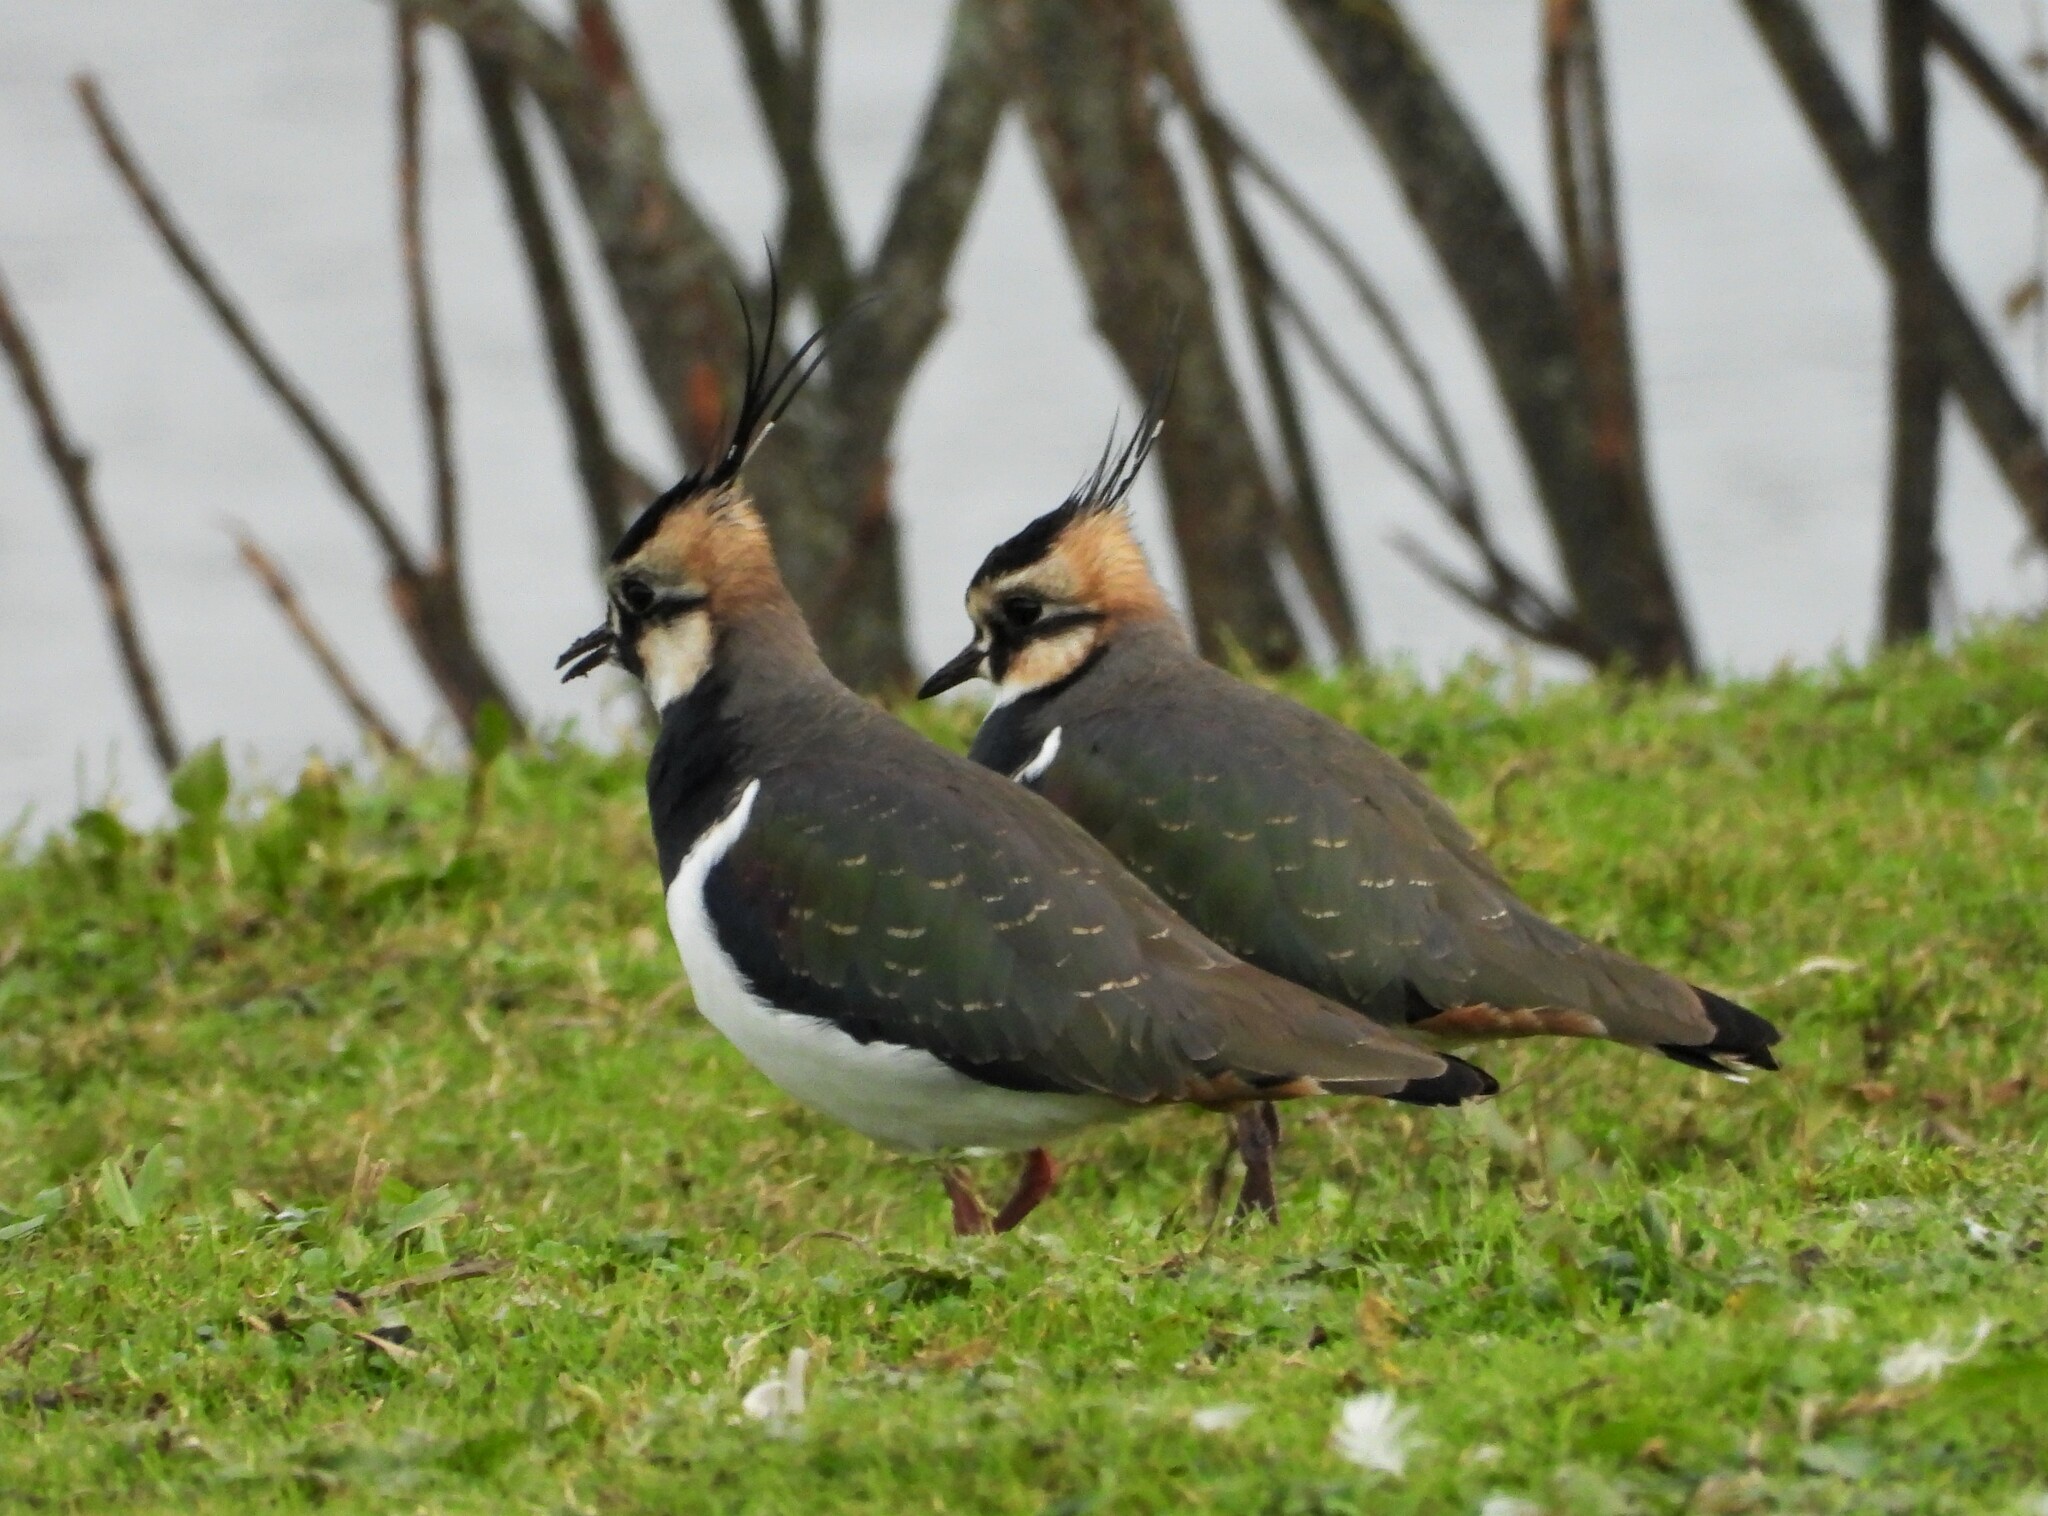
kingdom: Animalia
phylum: Chordata
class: Aves
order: Charadriiformes
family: Charadriidae
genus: Vanellus
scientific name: Vanellus vanellus
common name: Northern lapwing
